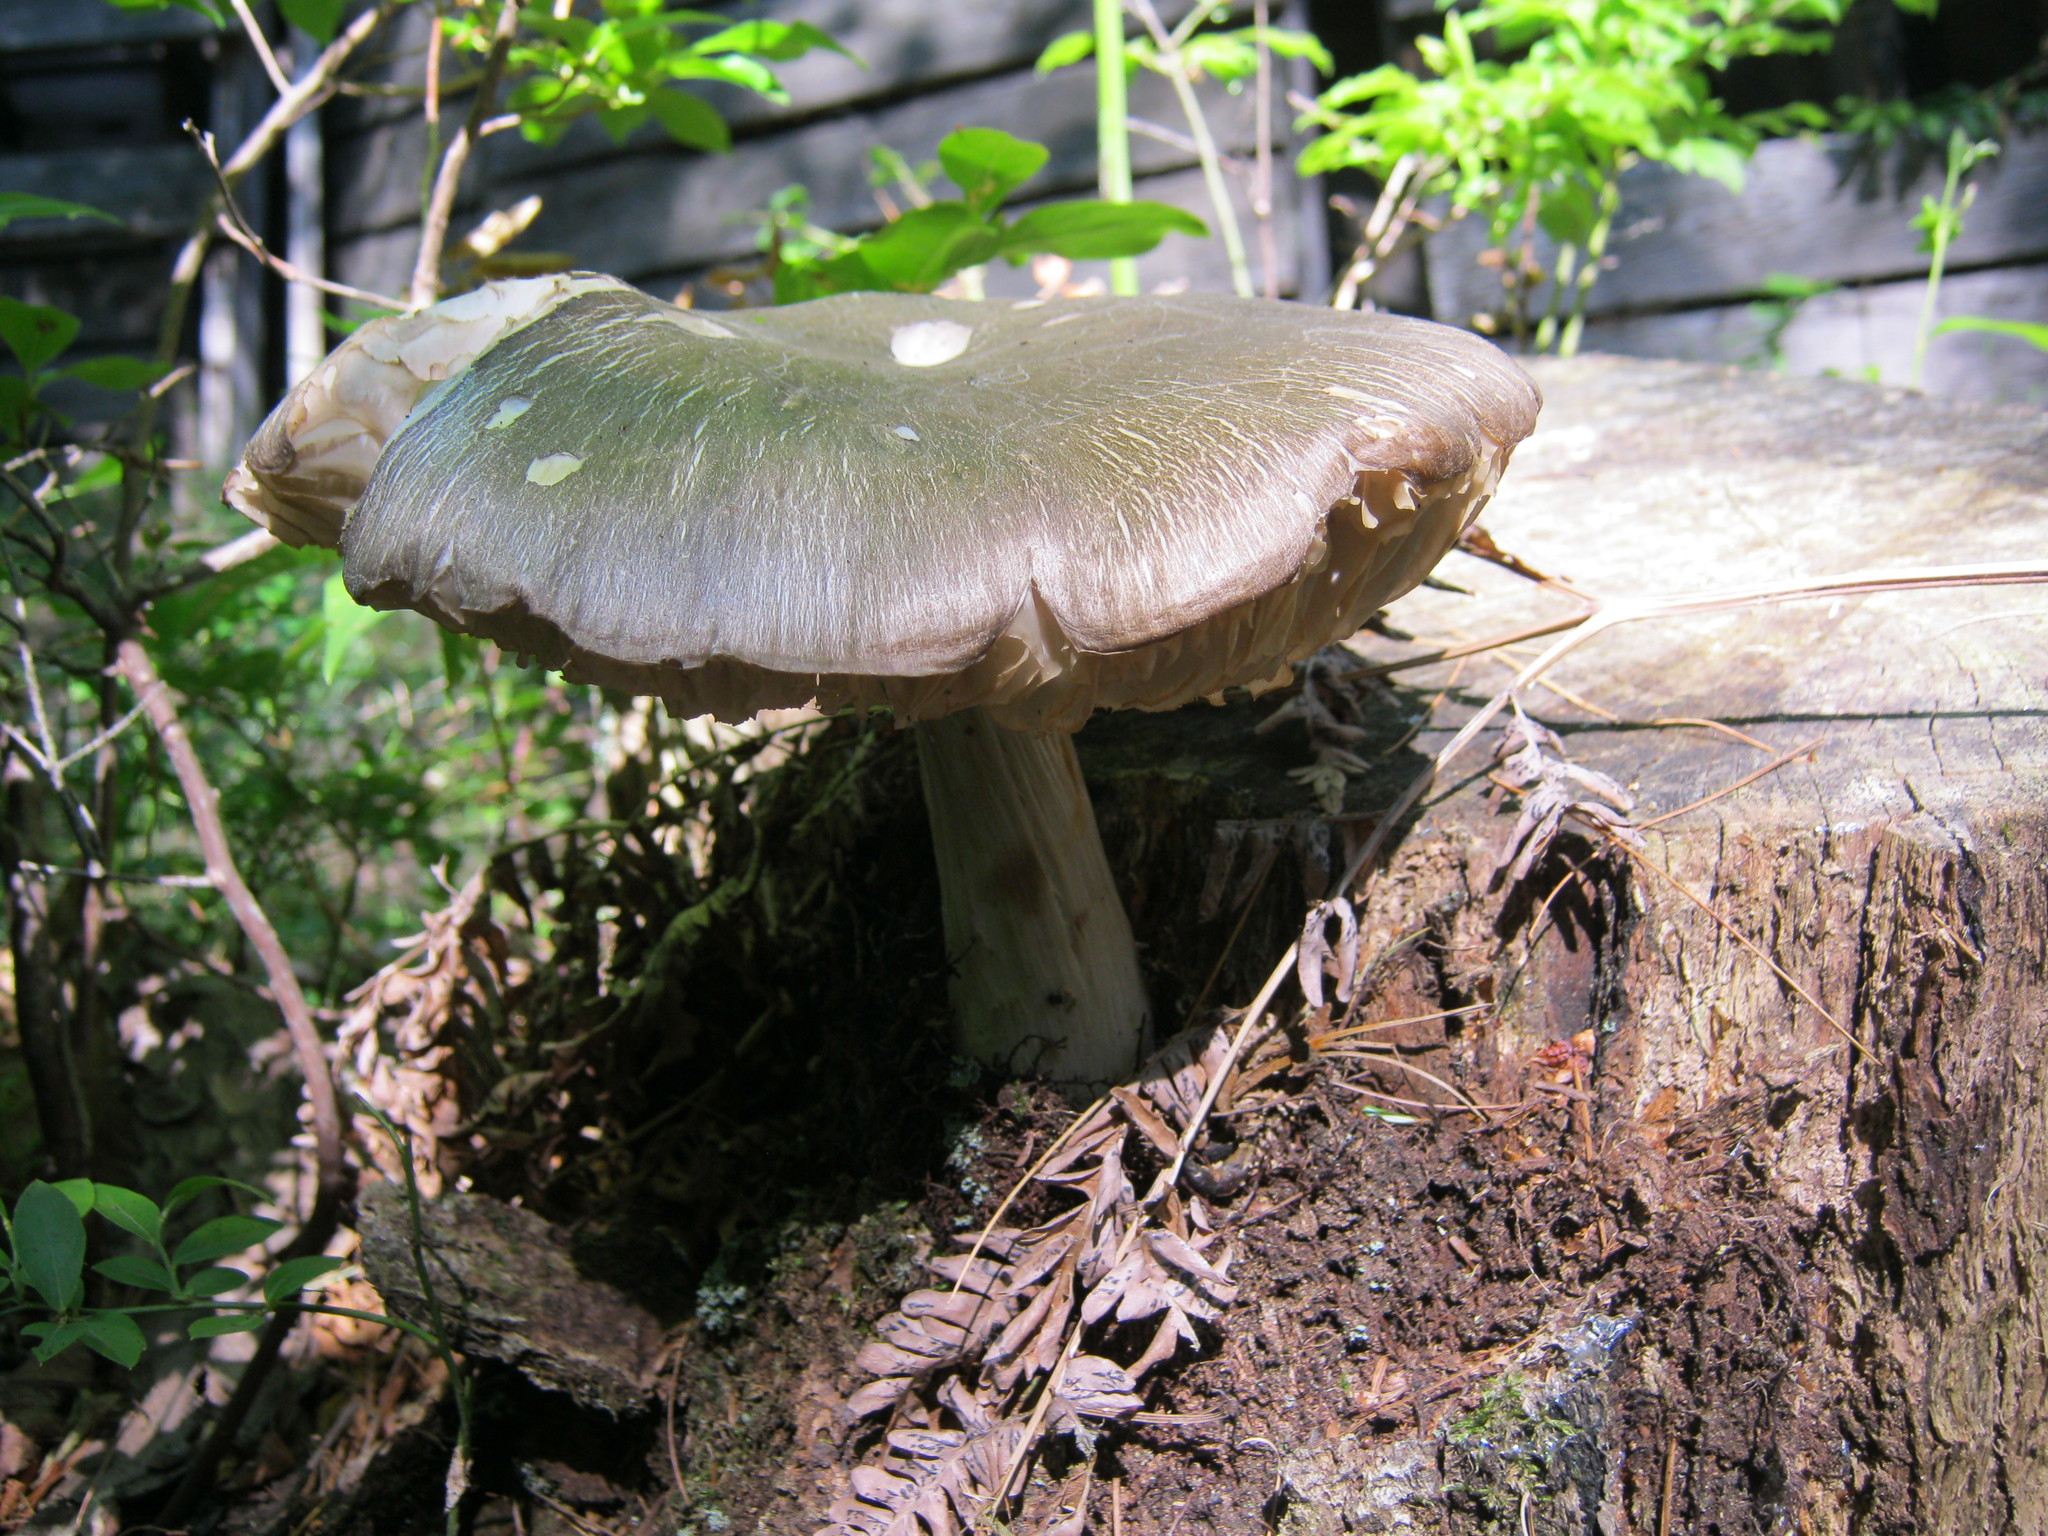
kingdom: Fungi
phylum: Basidiomycota
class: Agaricomycetes
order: Agaricales
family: Tricholomataceae
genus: Megacollybia
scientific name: Megacollybia rodmanii
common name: Eastern american platterful mushroom
